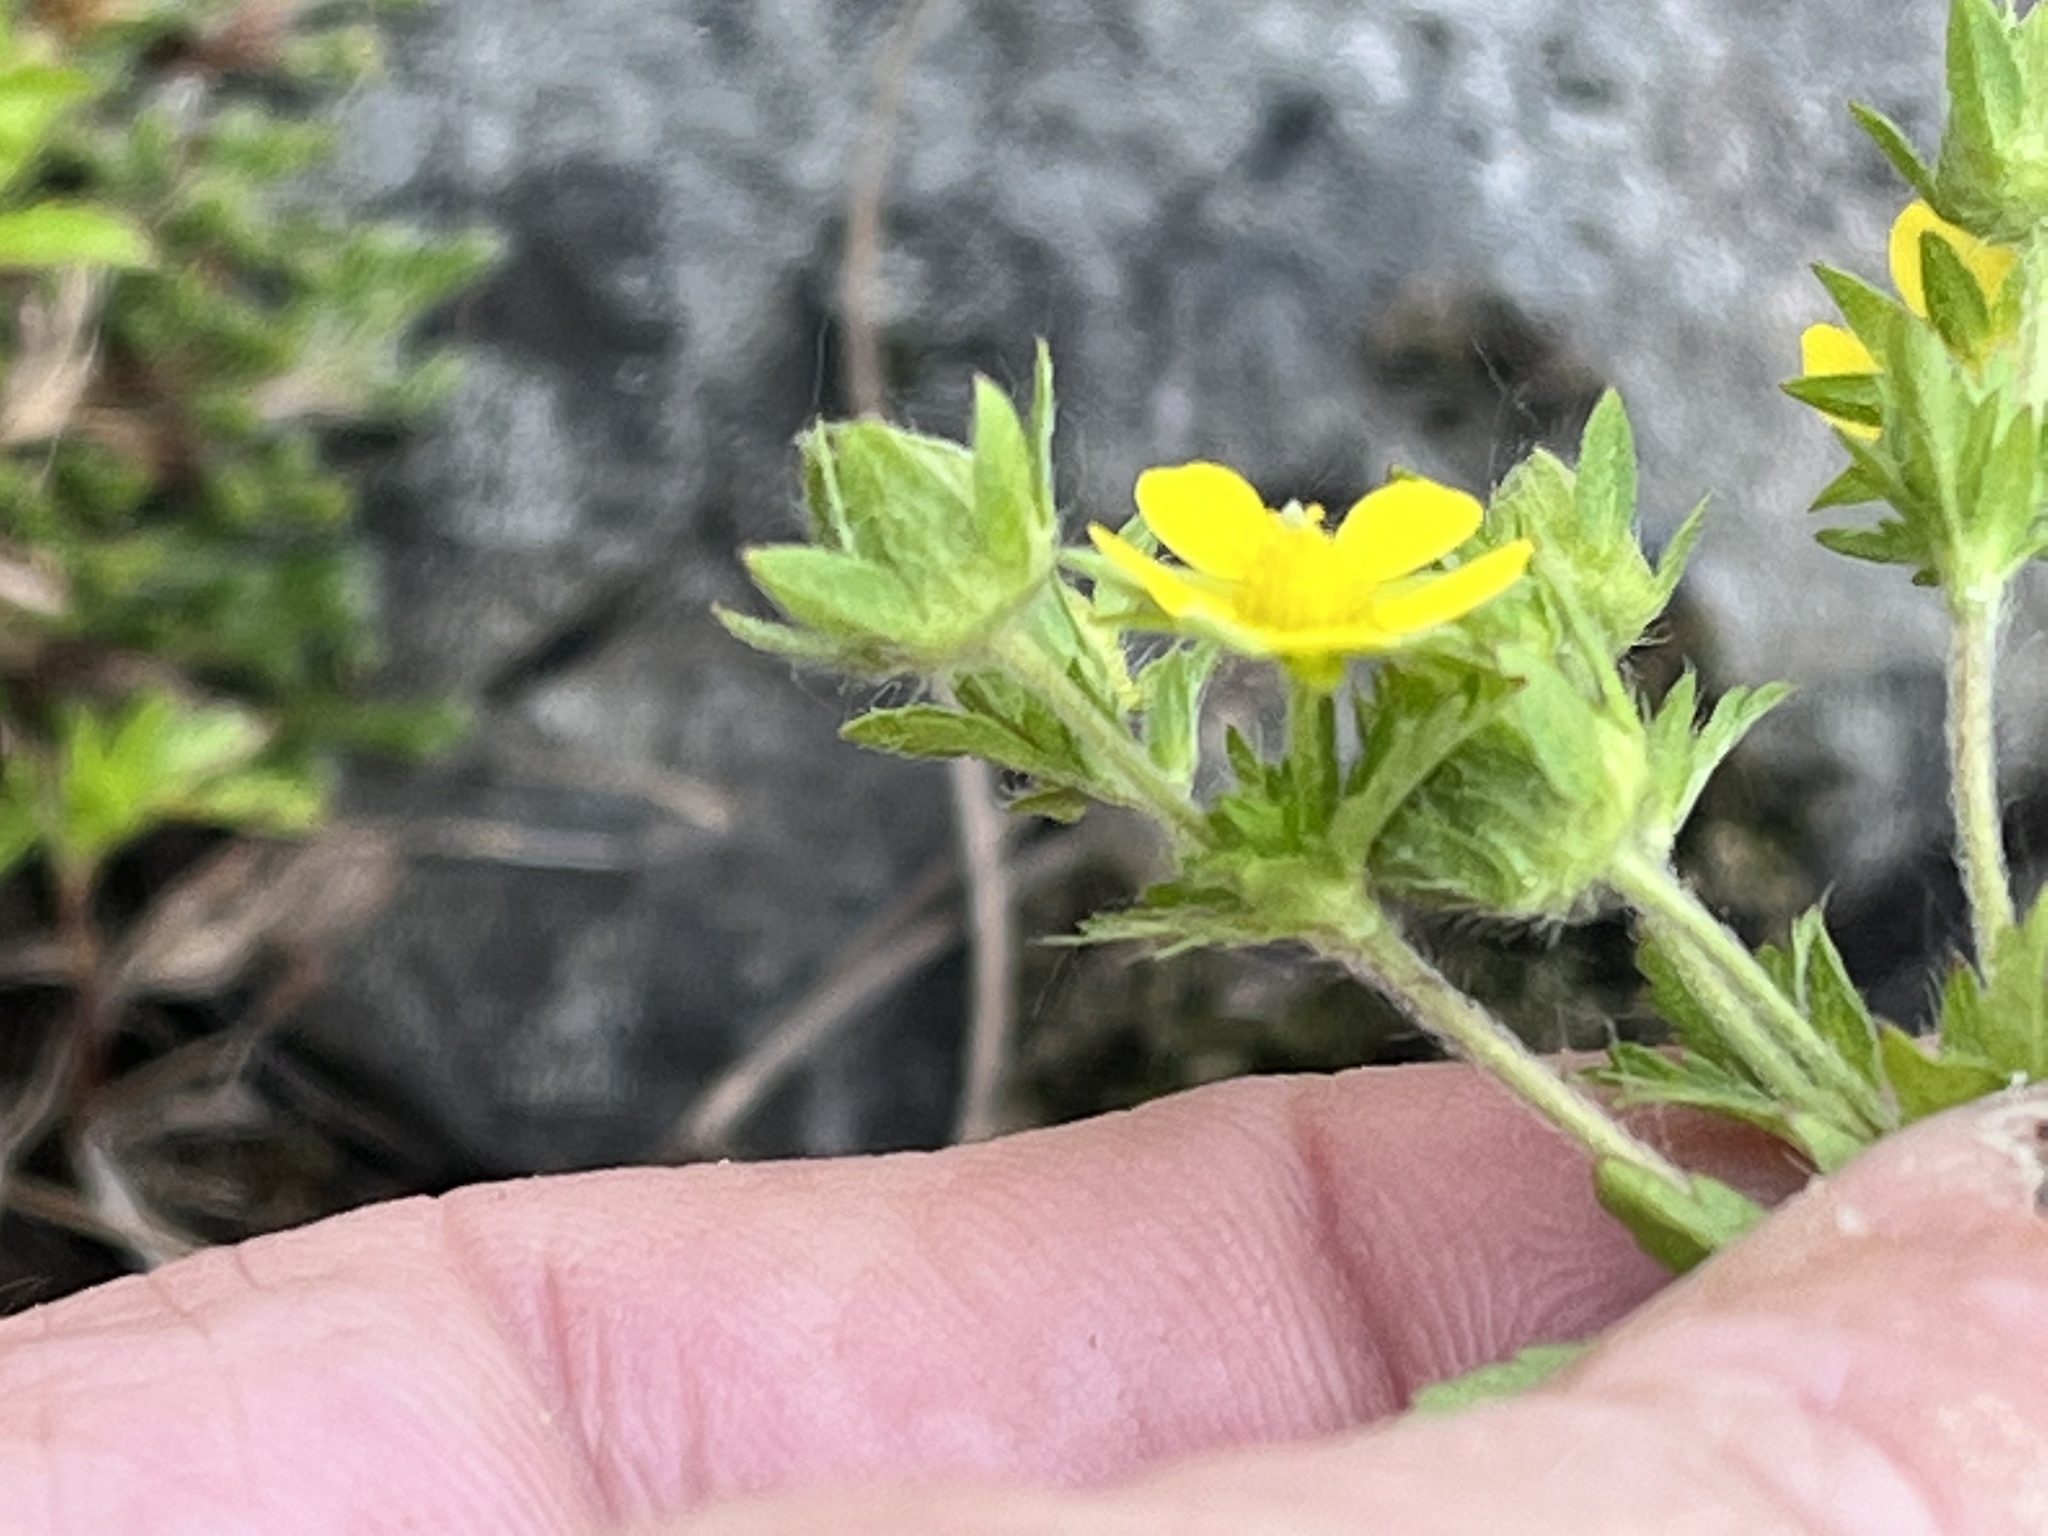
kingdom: Plantae
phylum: Tracheophyta
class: Magnoliopsida
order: Rosales
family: Rosaceae
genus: Potentilla
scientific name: Potentilla norvegica
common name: Ternate-leaved cinquefoil
